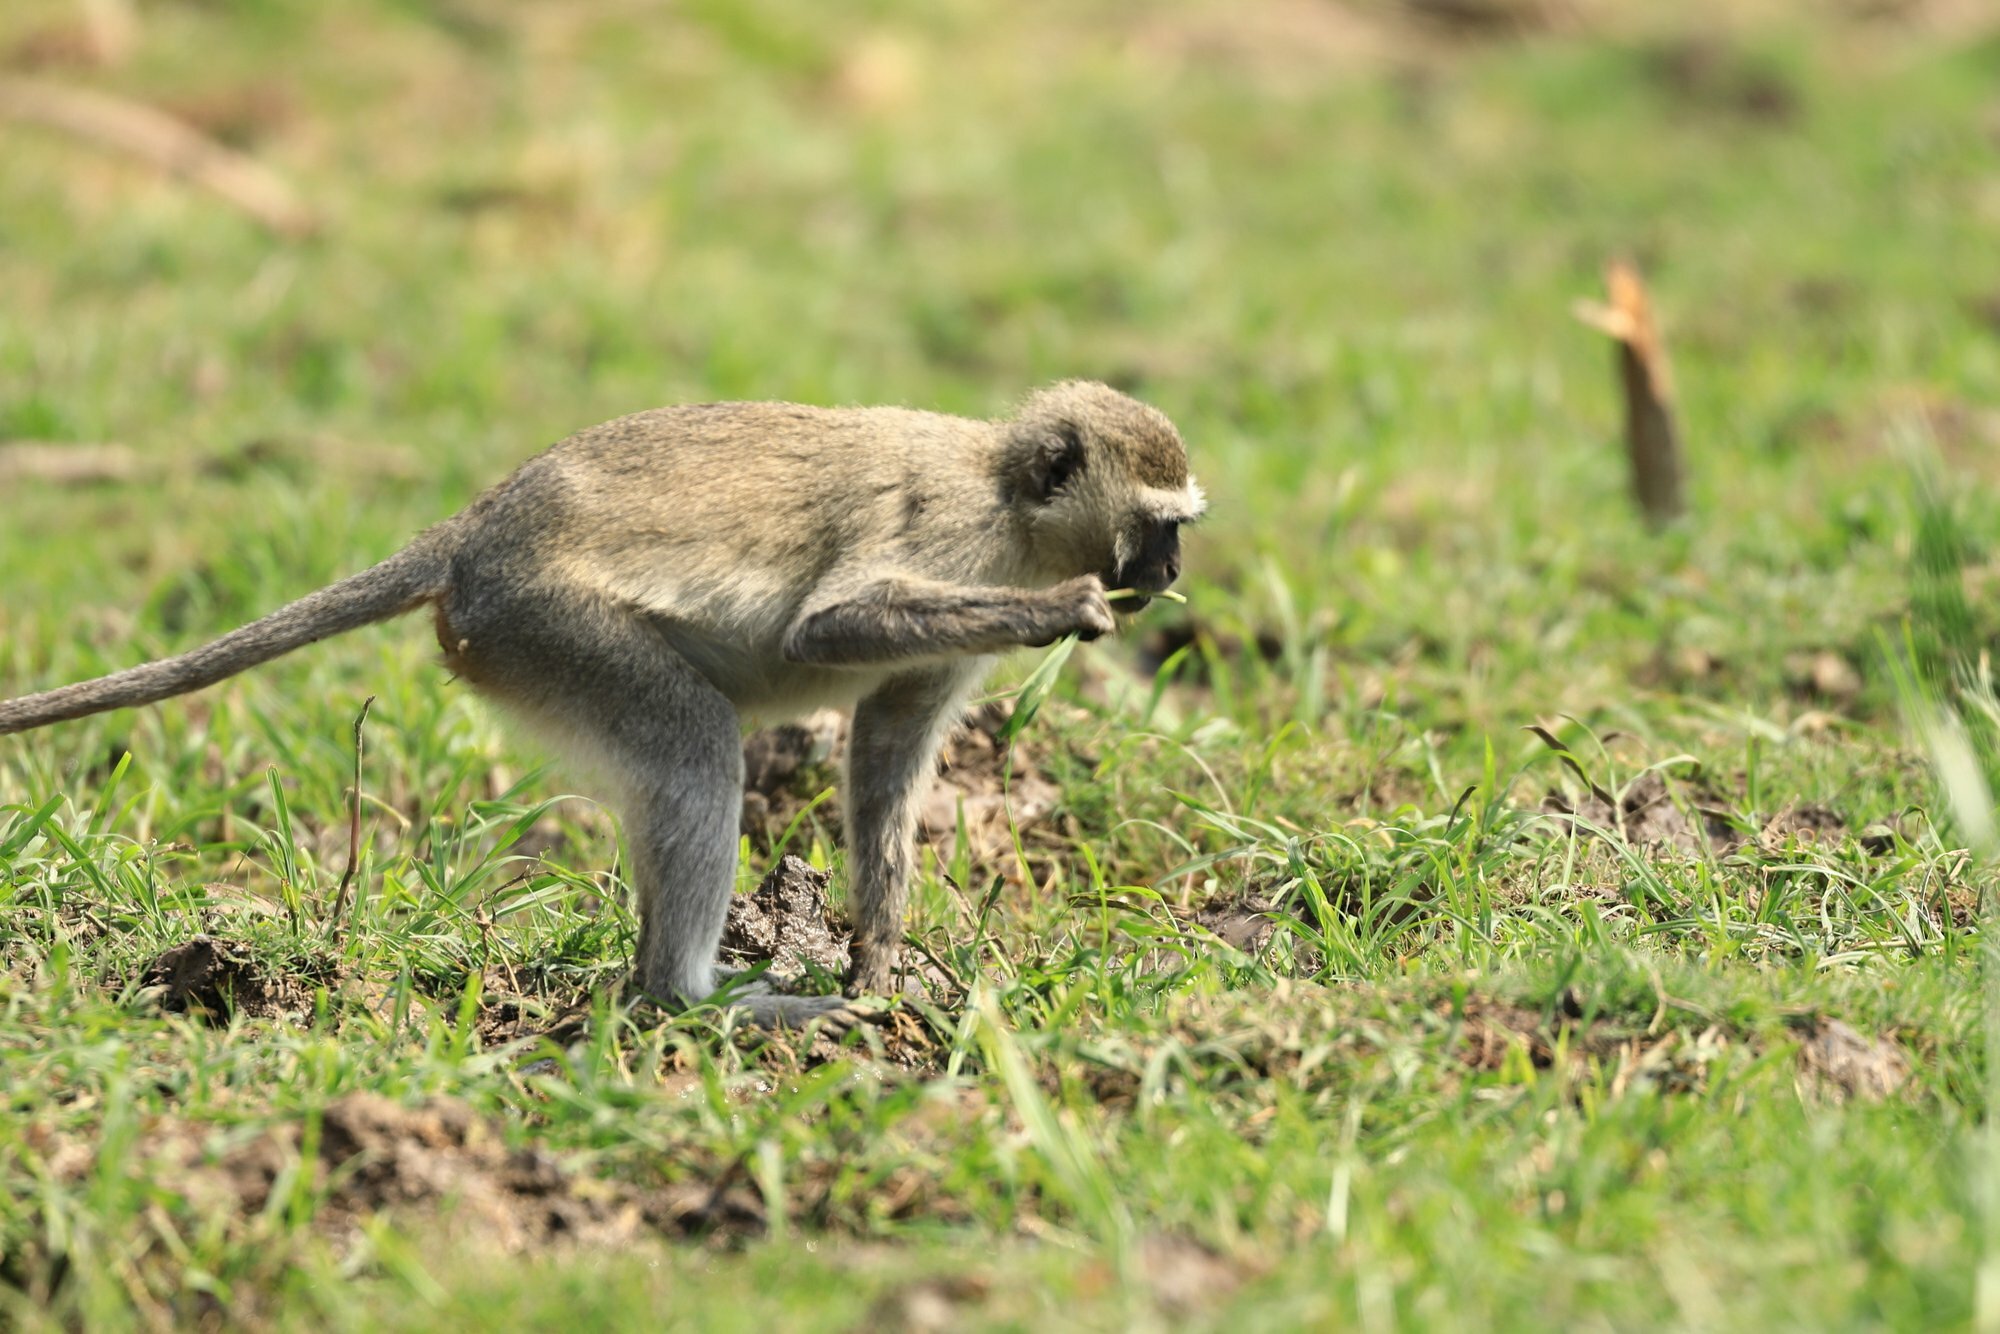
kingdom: Animalia
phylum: Chordata
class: Mammalia
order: Primates
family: Cercopithecidae
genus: Chlorocebus
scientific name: Chlorocebus pygerythrus
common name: Vervet monkey
